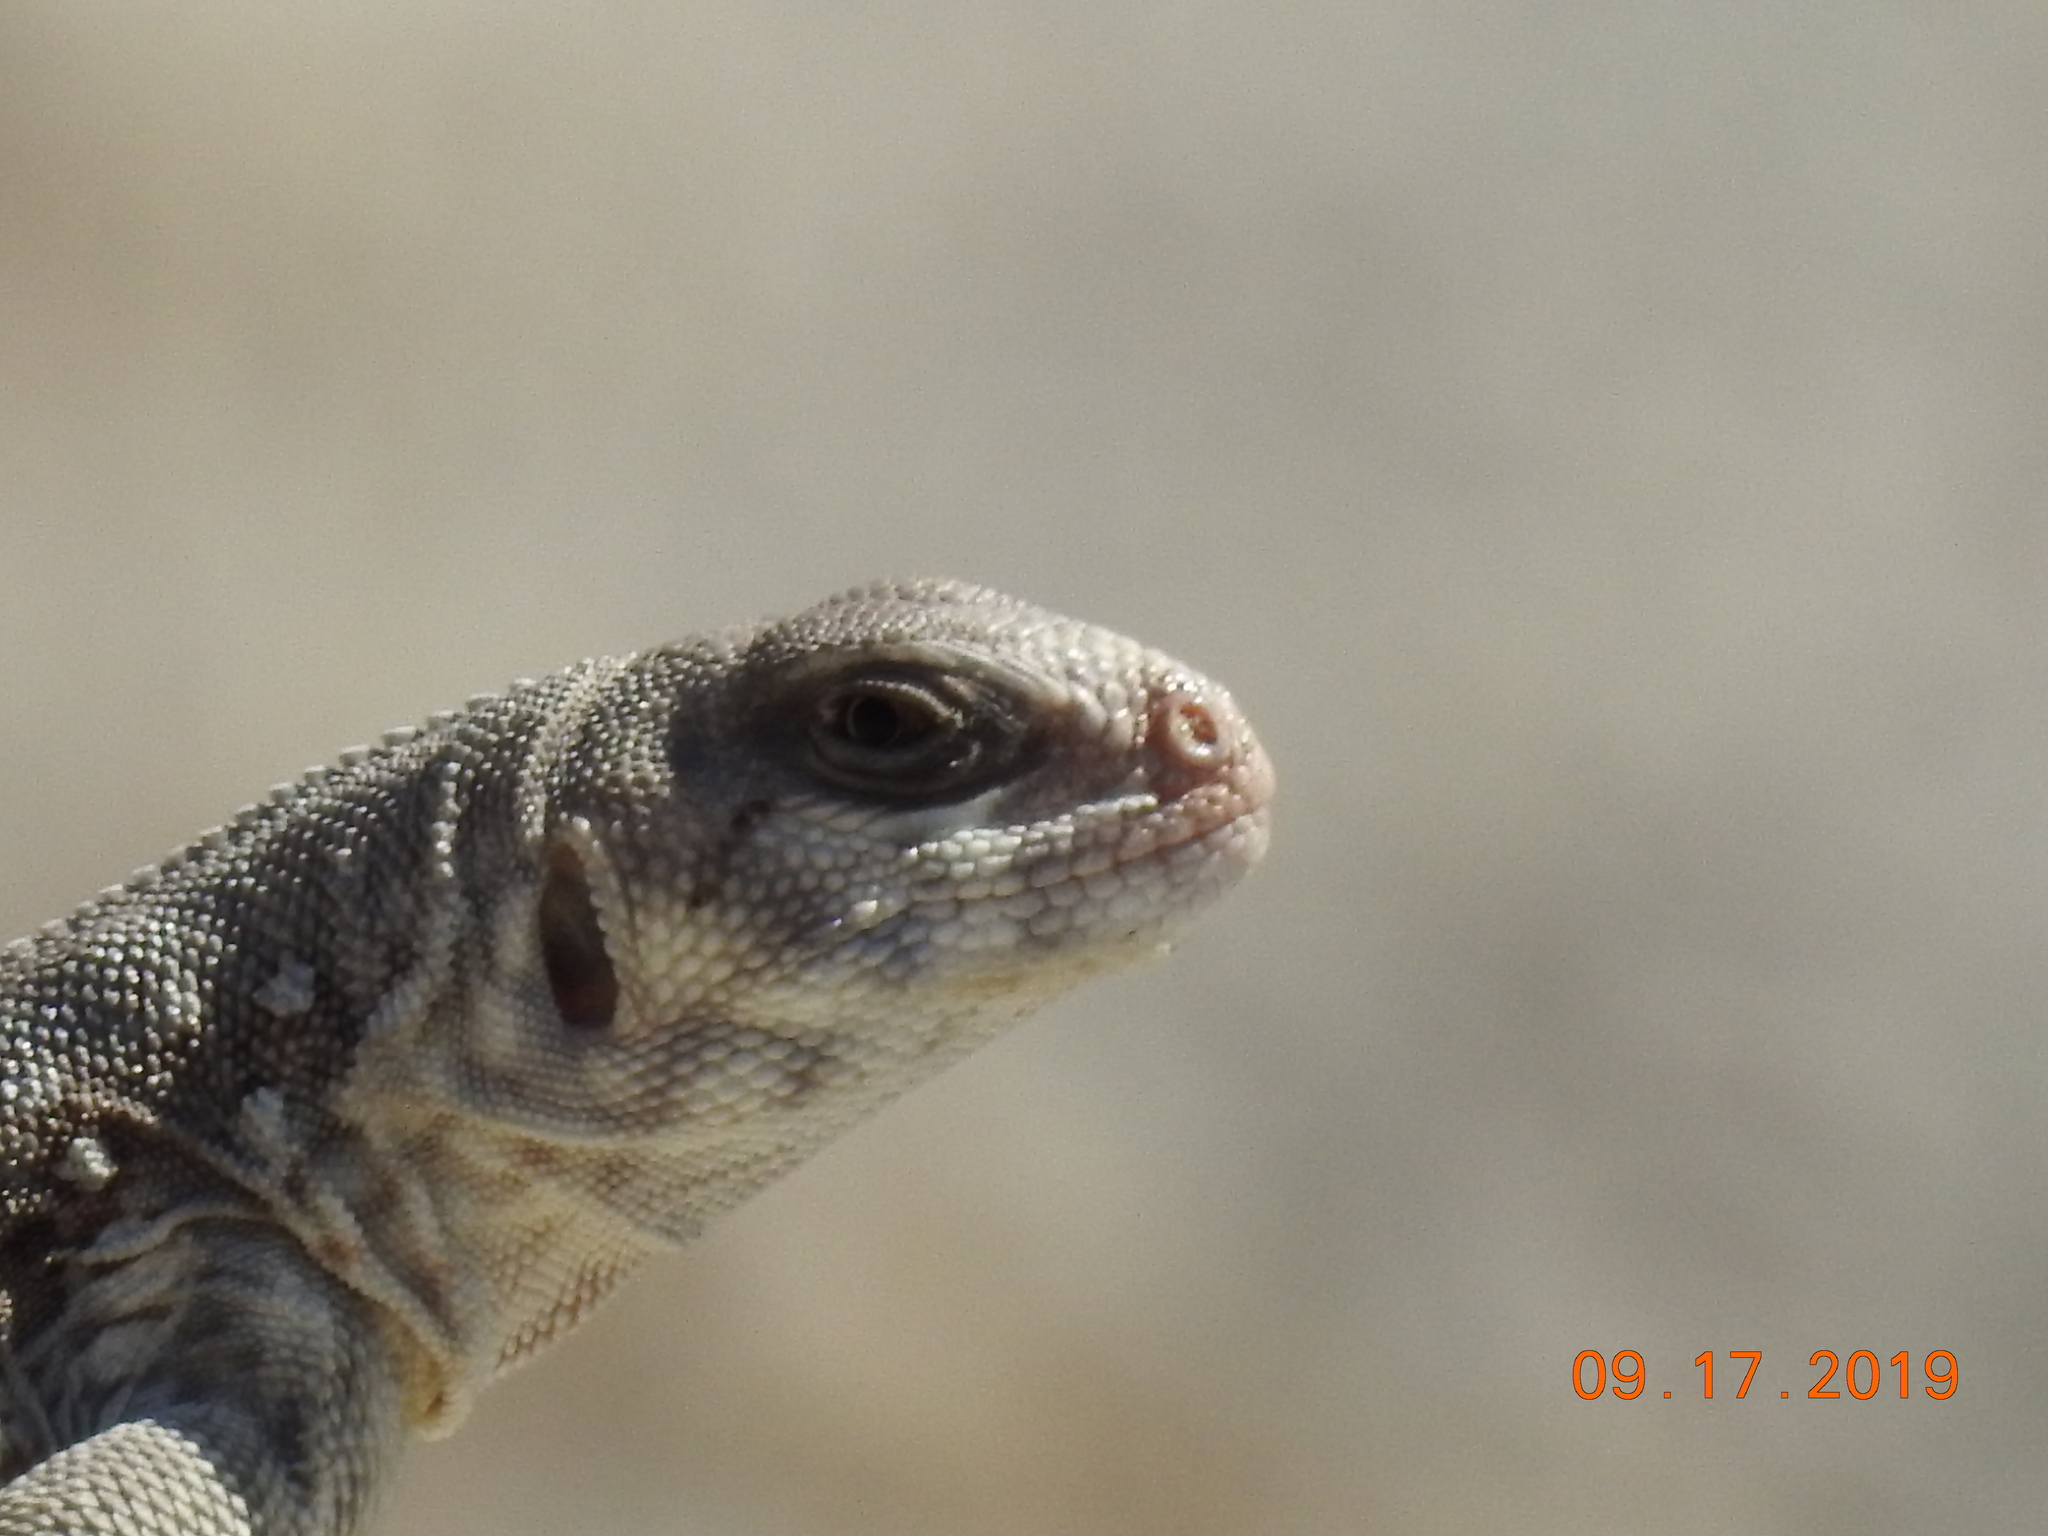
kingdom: Animalia
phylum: Chordata
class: Squamata
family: Iguanidae
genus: Dipsosaurus
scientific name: Dipsosaurus dorsalis
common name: Desert iguana
